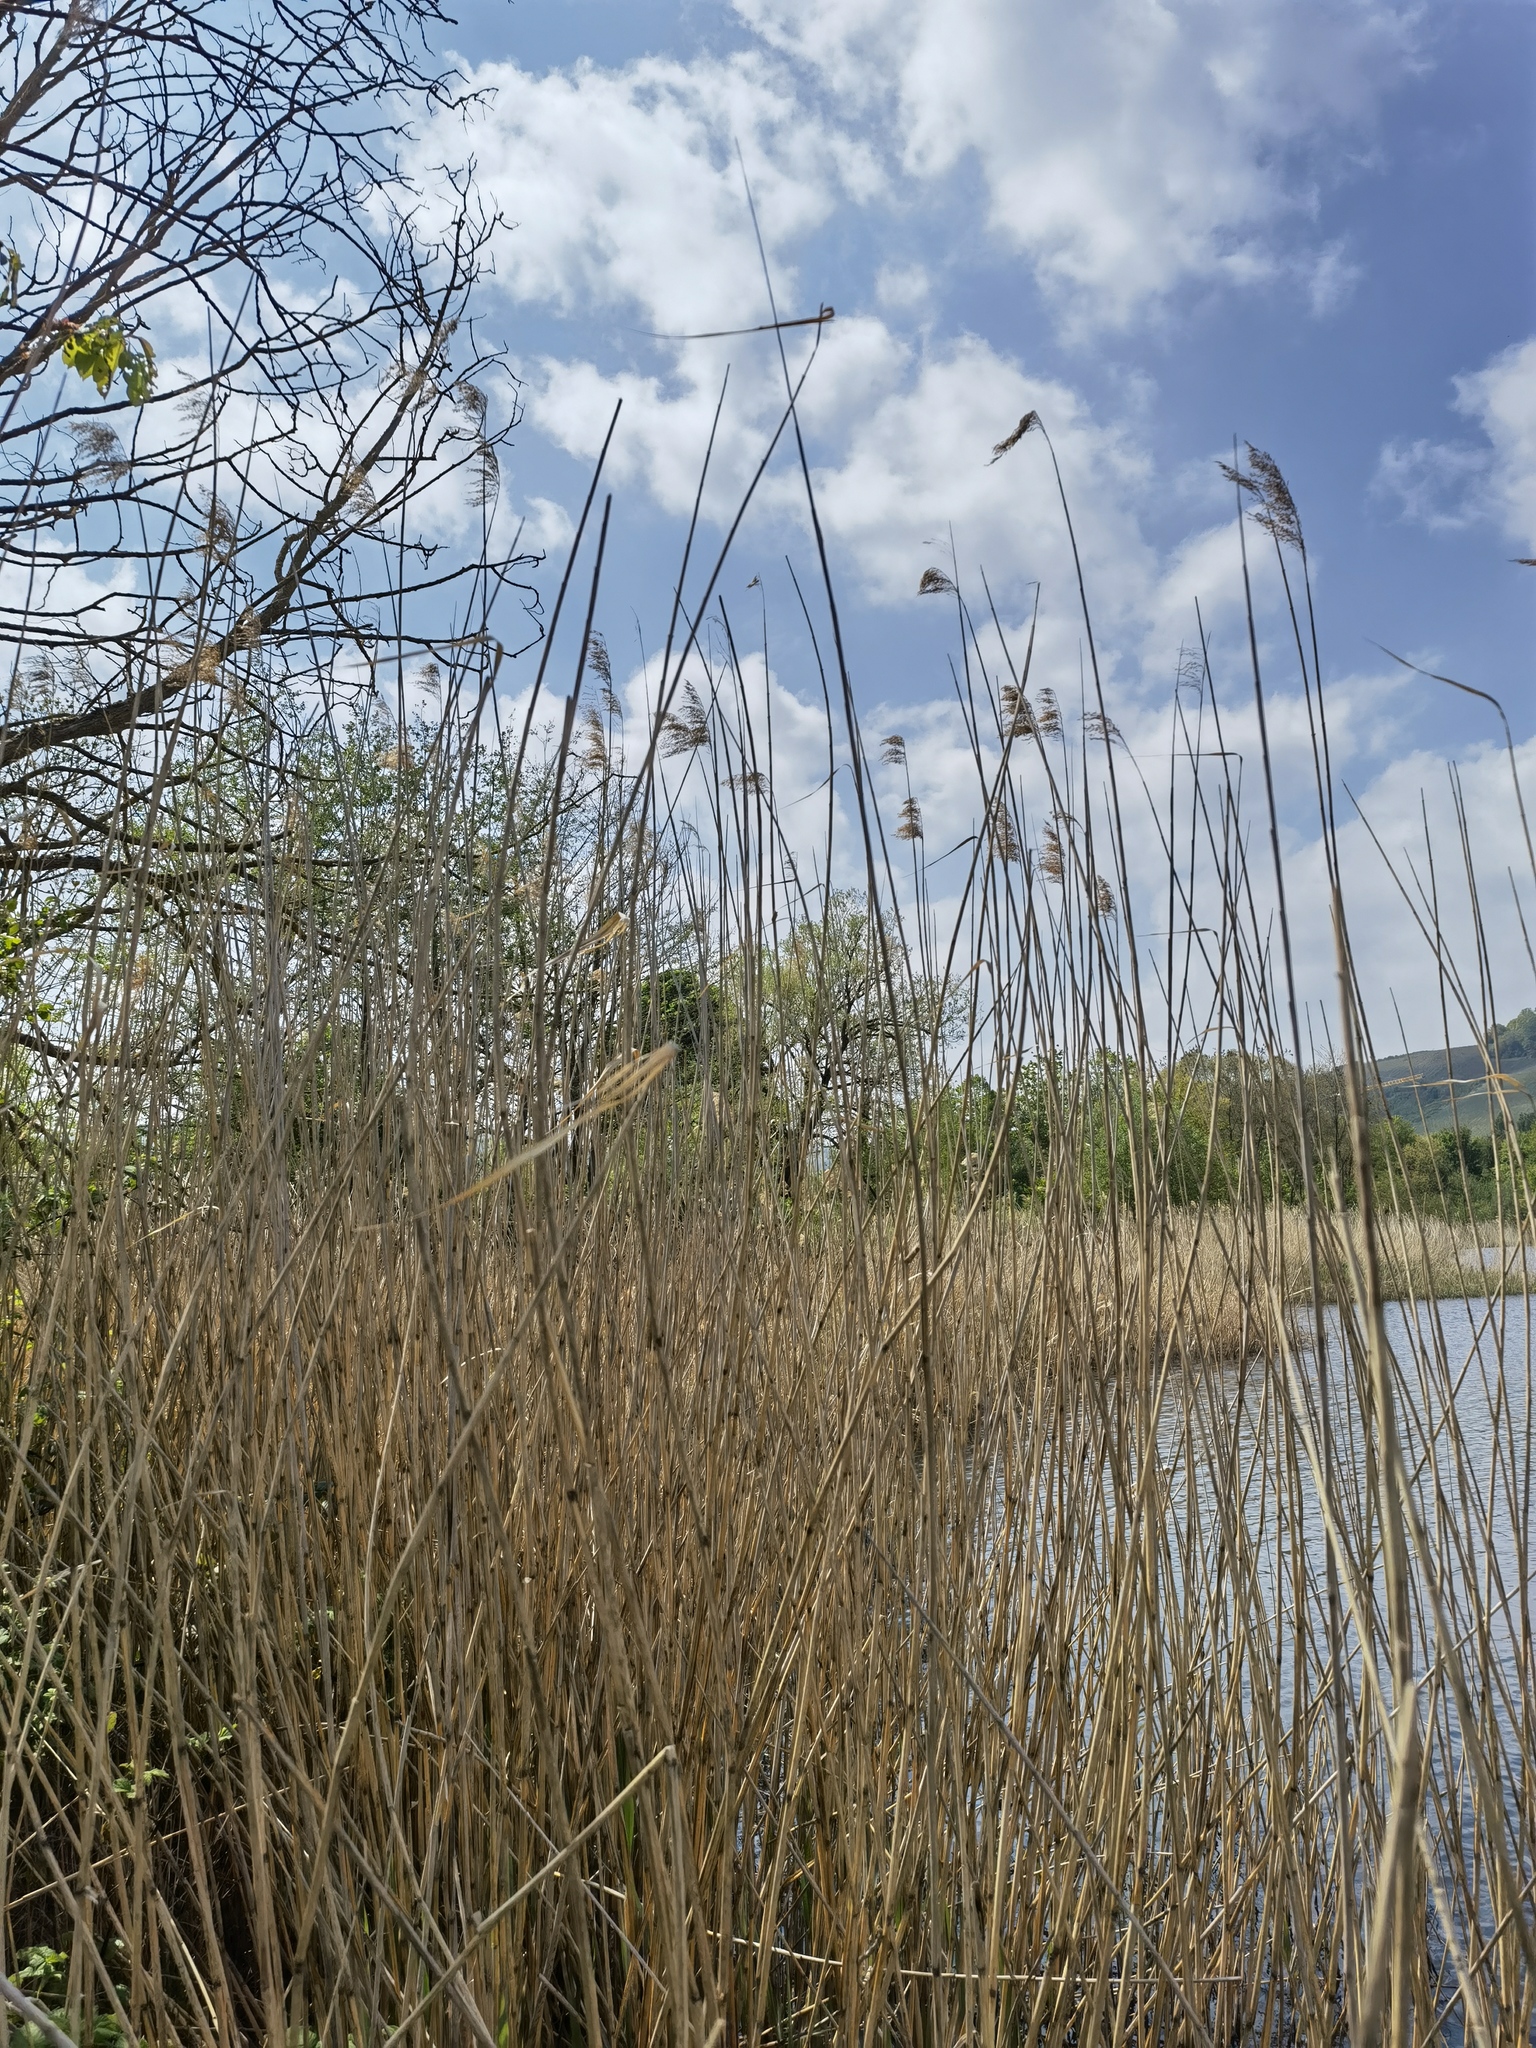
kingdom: Plantae
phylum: Tracheophyta
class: Liliopsida
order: Poales
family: Poaceae
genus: Phragmites
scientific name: Phragmites australis
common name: Common reed
